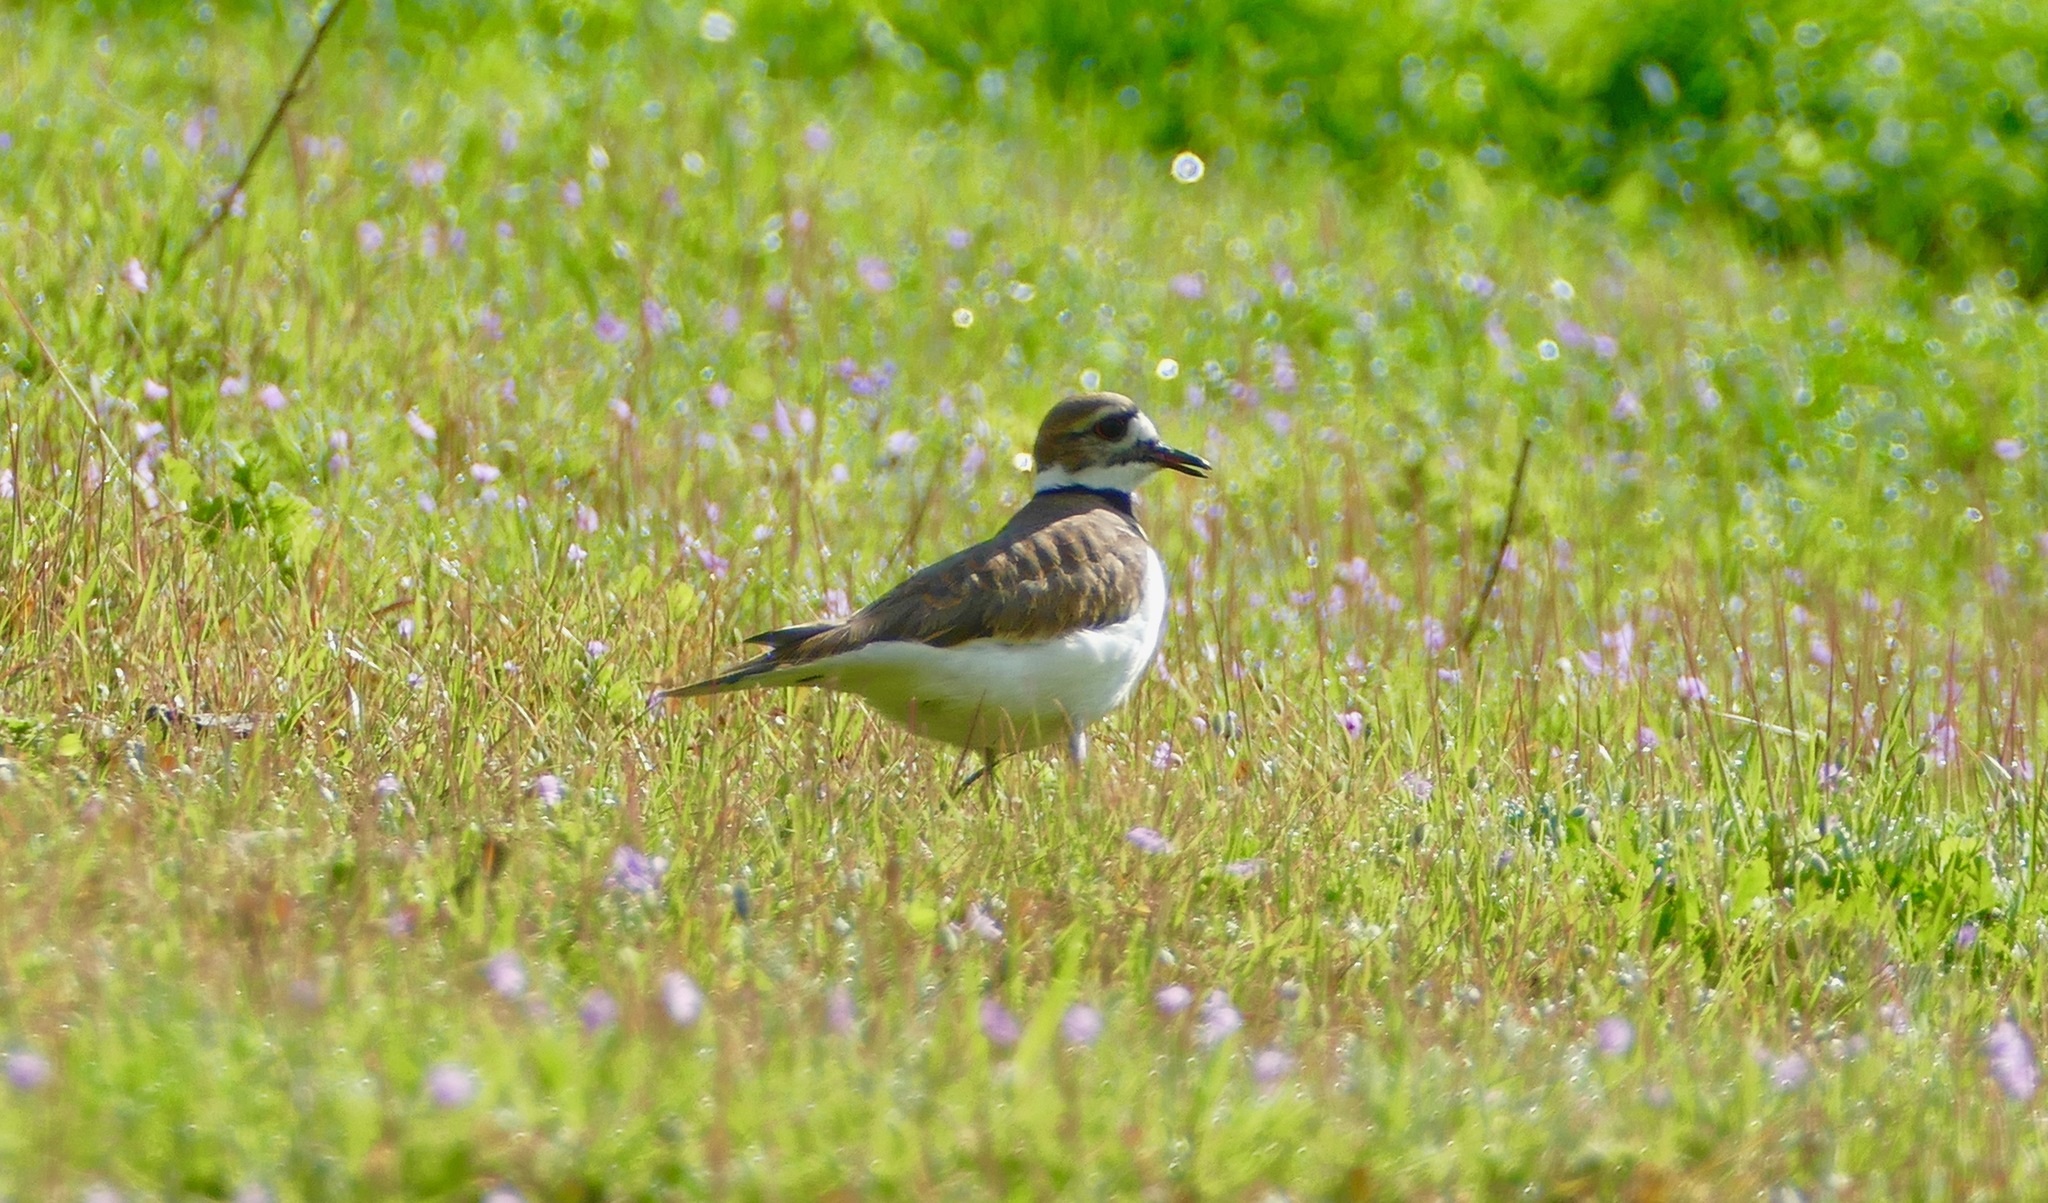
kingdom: Animalia
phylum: Chordata
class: Aves
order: Charadriiformes
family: Charadriidae
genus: Charadrius
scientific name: Charadrius vociferus
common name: Killdeer
